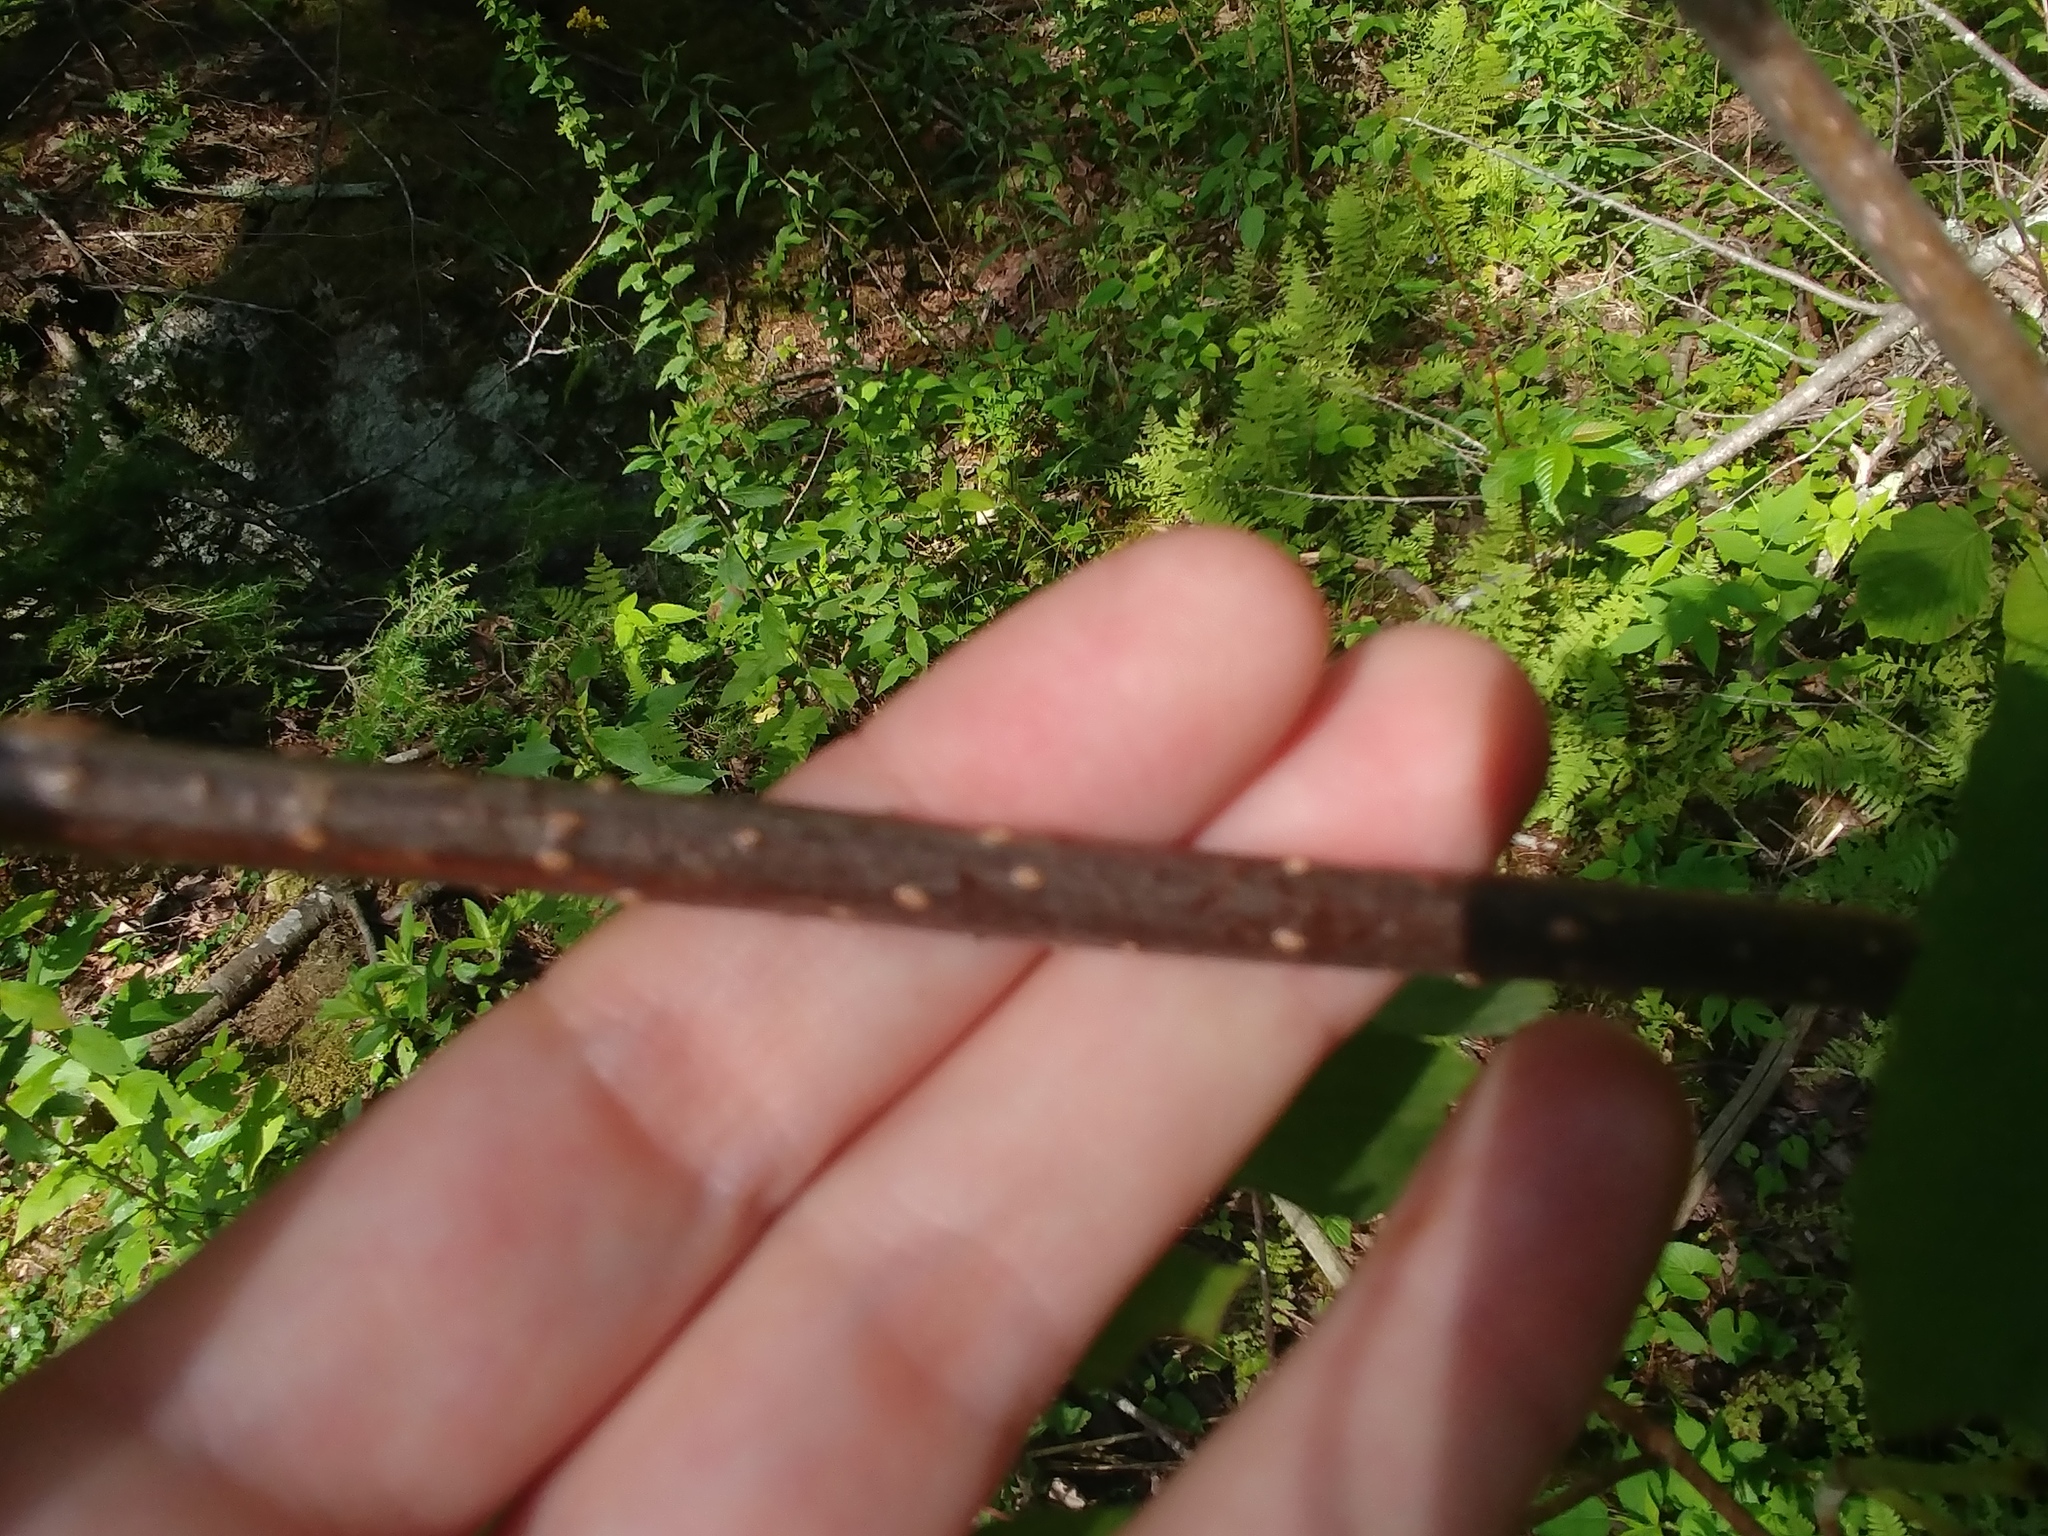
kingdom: Plantae
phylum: Tracheophyta
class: Magnoliopsida
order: Dipsacales
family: Viburnaceae
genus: Sambucus
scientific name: Sambucus racemosa
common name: Red-berried elder
